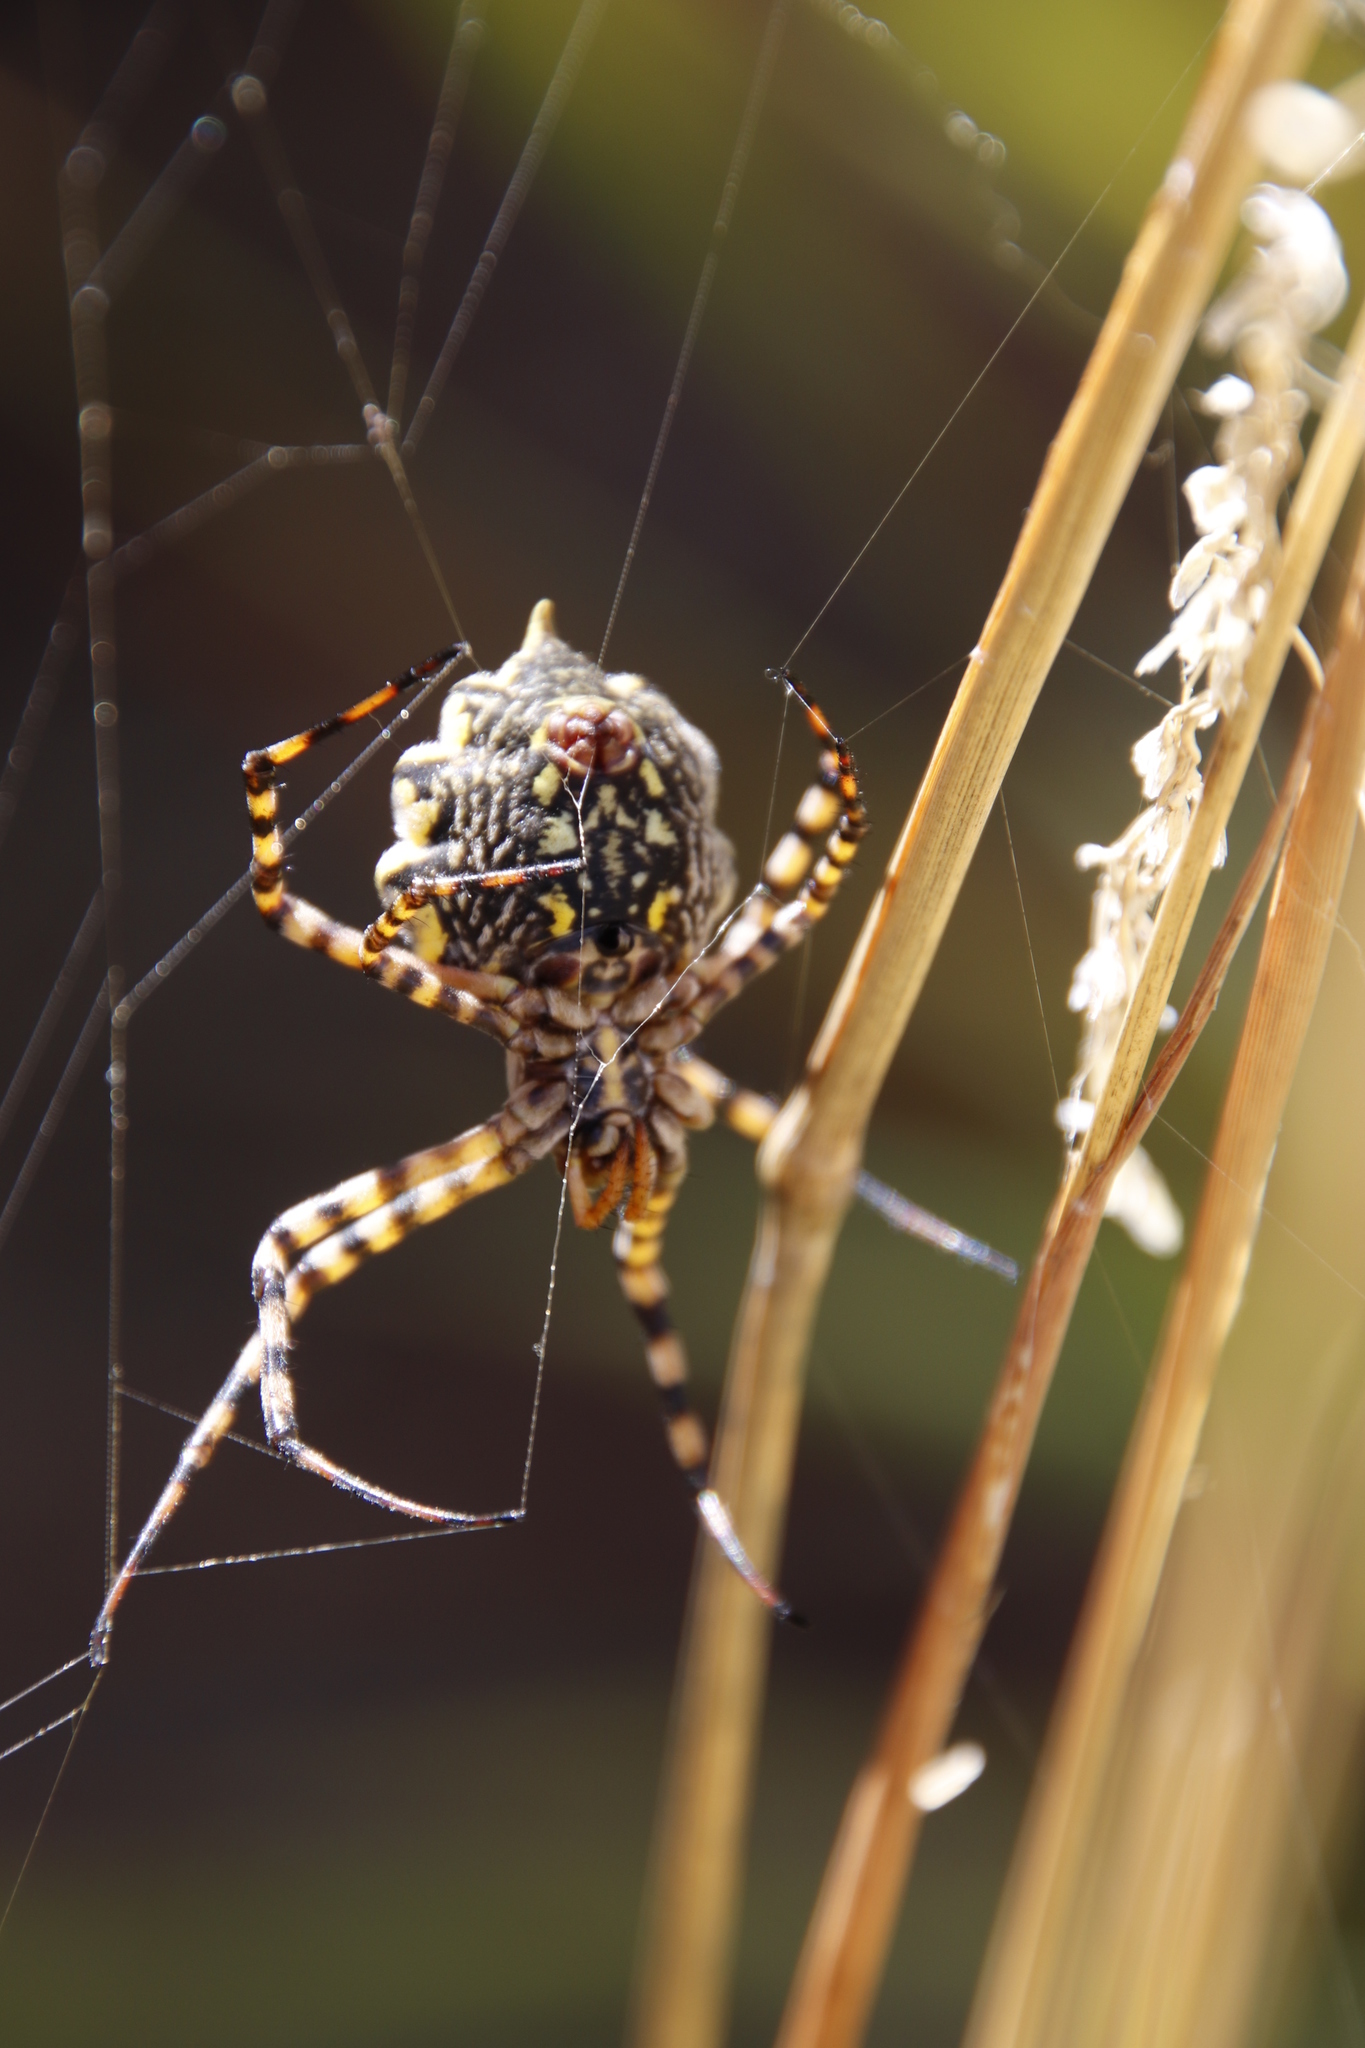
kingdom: Animalia
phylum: Arthropoda
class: Arachnida
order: Araneae
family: Araneidae
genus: Argiope
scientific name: Argiope australis
